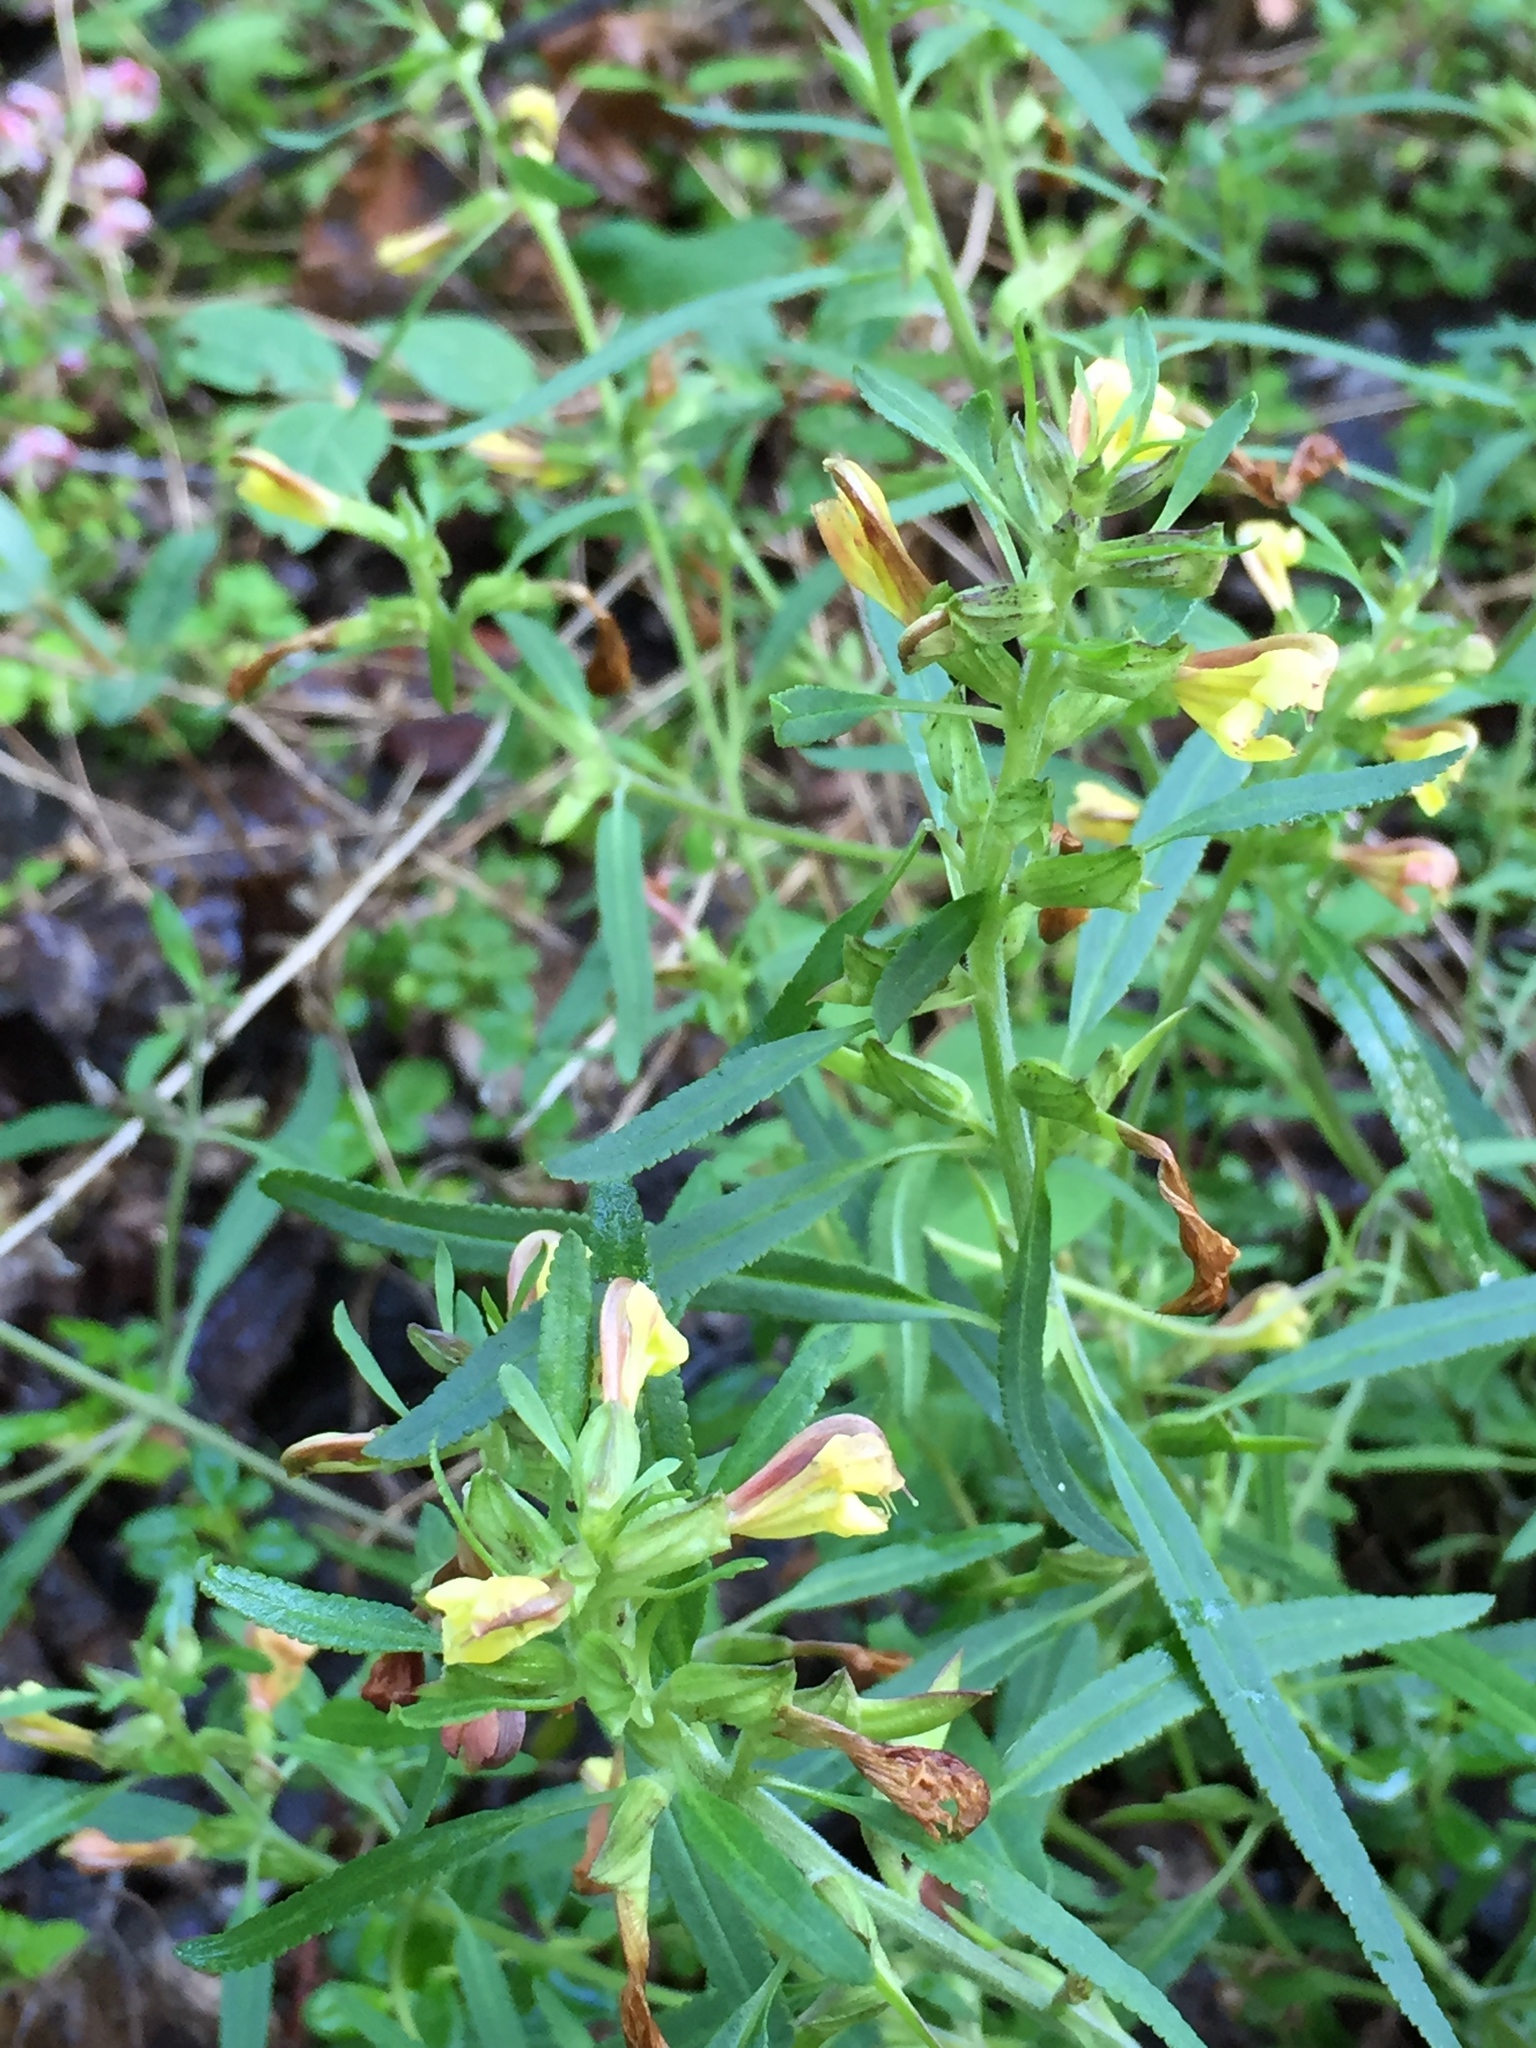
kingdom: Plantae
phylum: Tracheophyta
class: Magnoliopsida
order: Lamiales
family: Orobanchaceae
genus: Pedicularis
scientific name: Pedicularis labradorica
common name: Labrador lousewort
